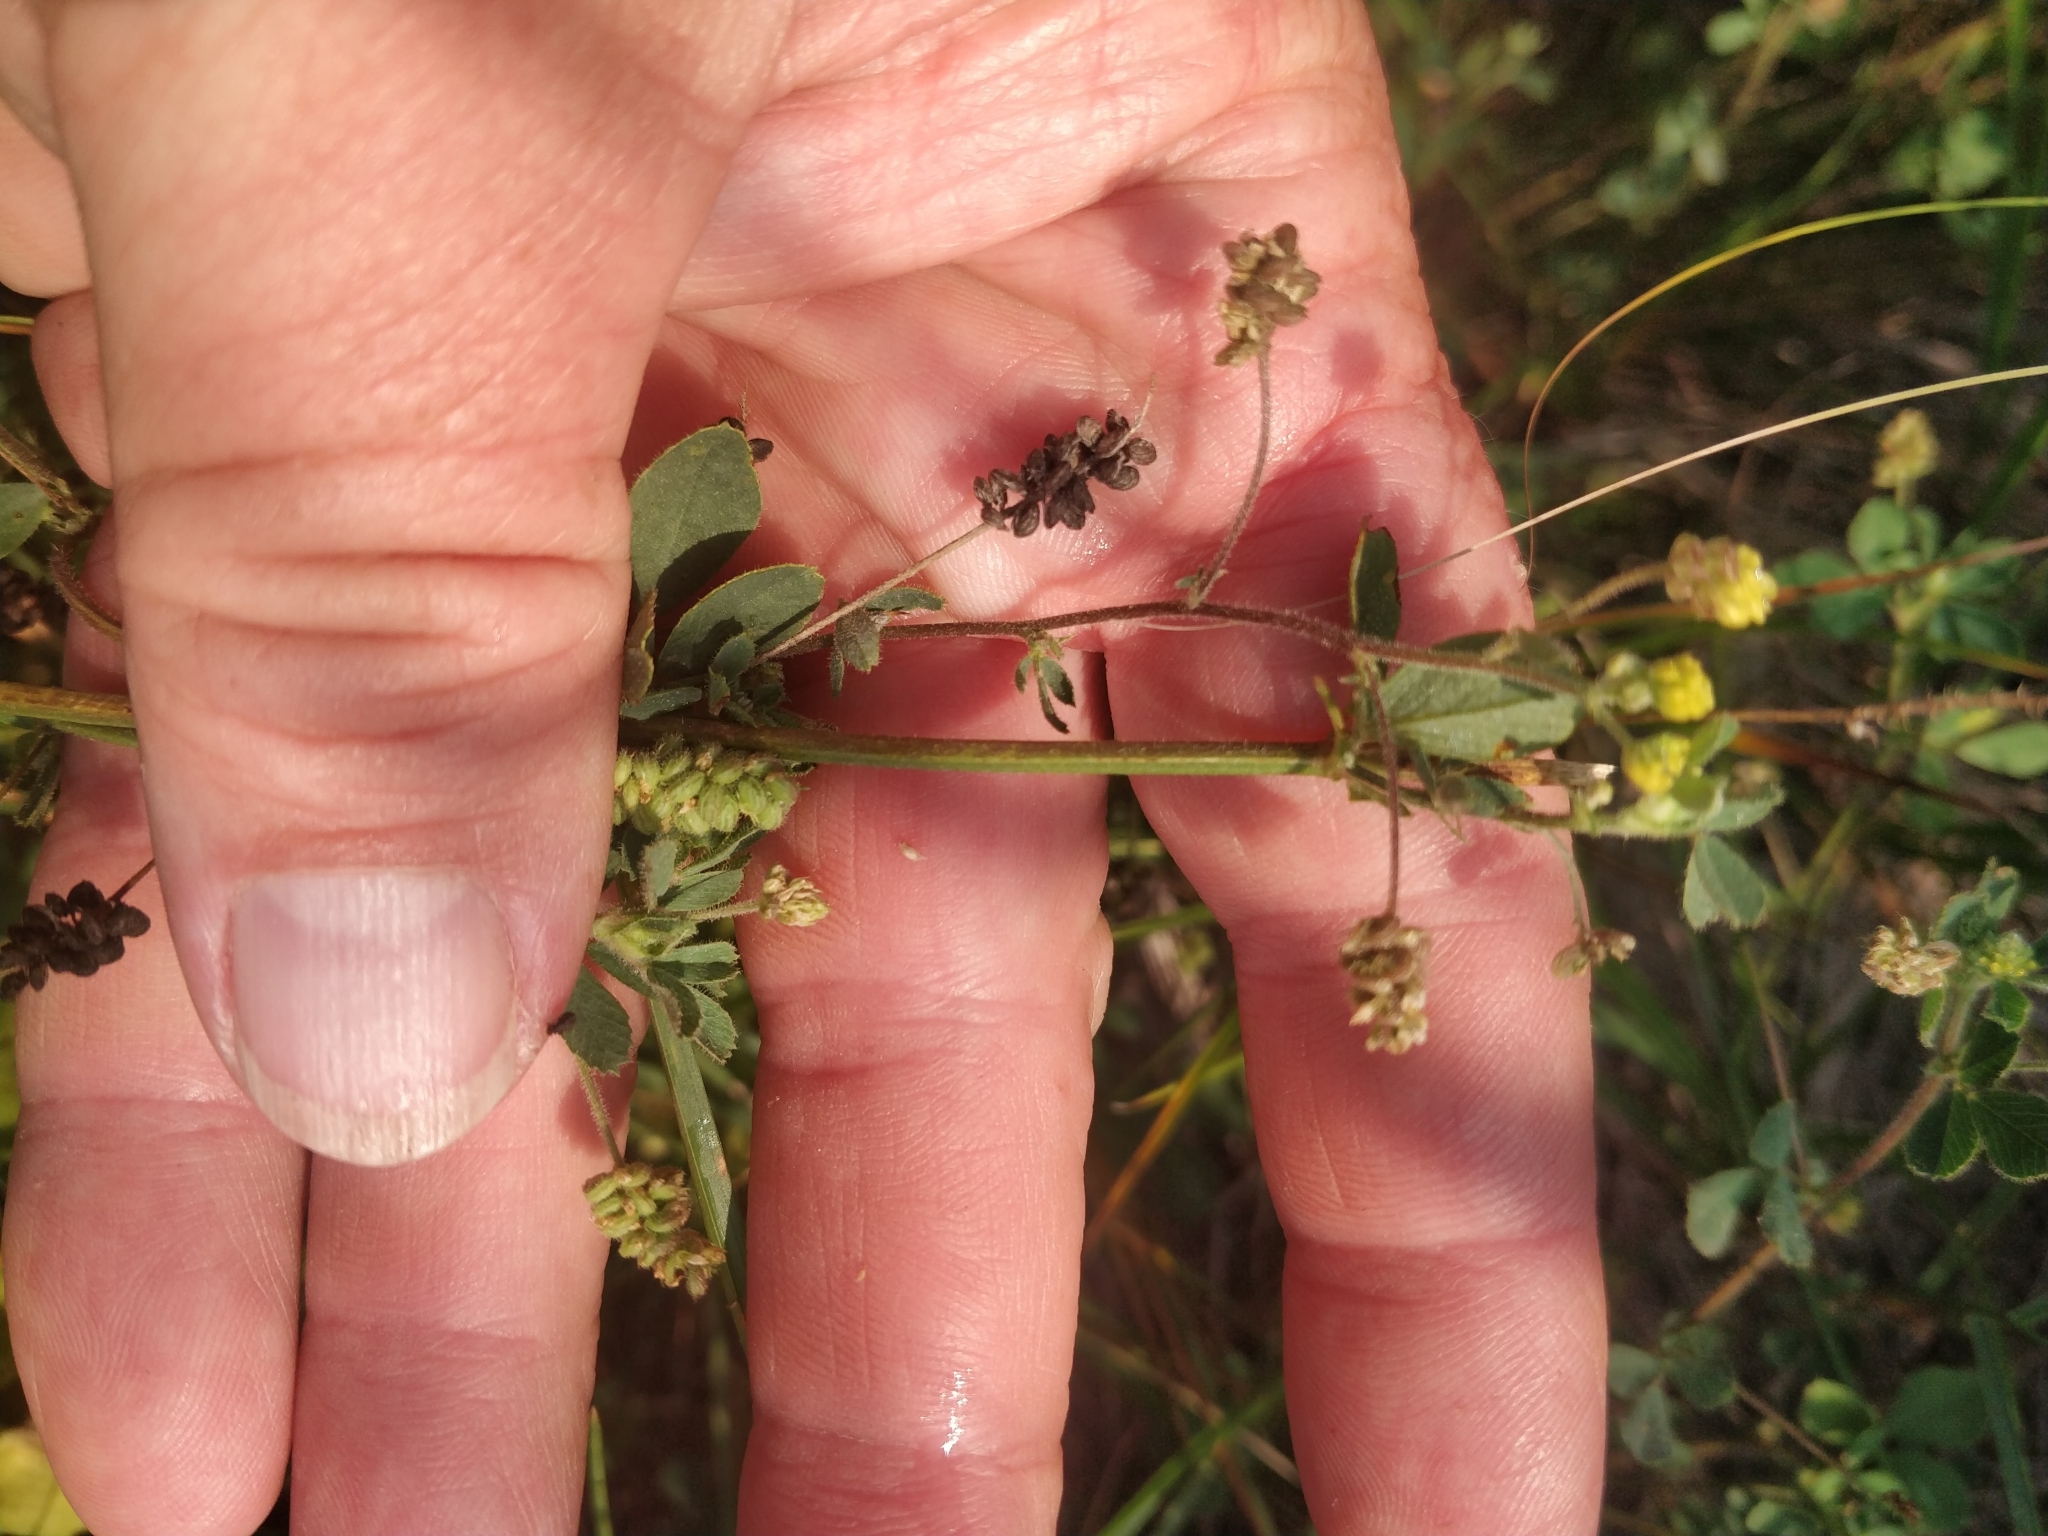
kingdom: Plantae
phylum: Tracheophyta
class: Magnoliopsida
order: Fabales
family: Fabaceae
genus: Medicago
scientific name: Medicago lupulina
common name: Black medick
